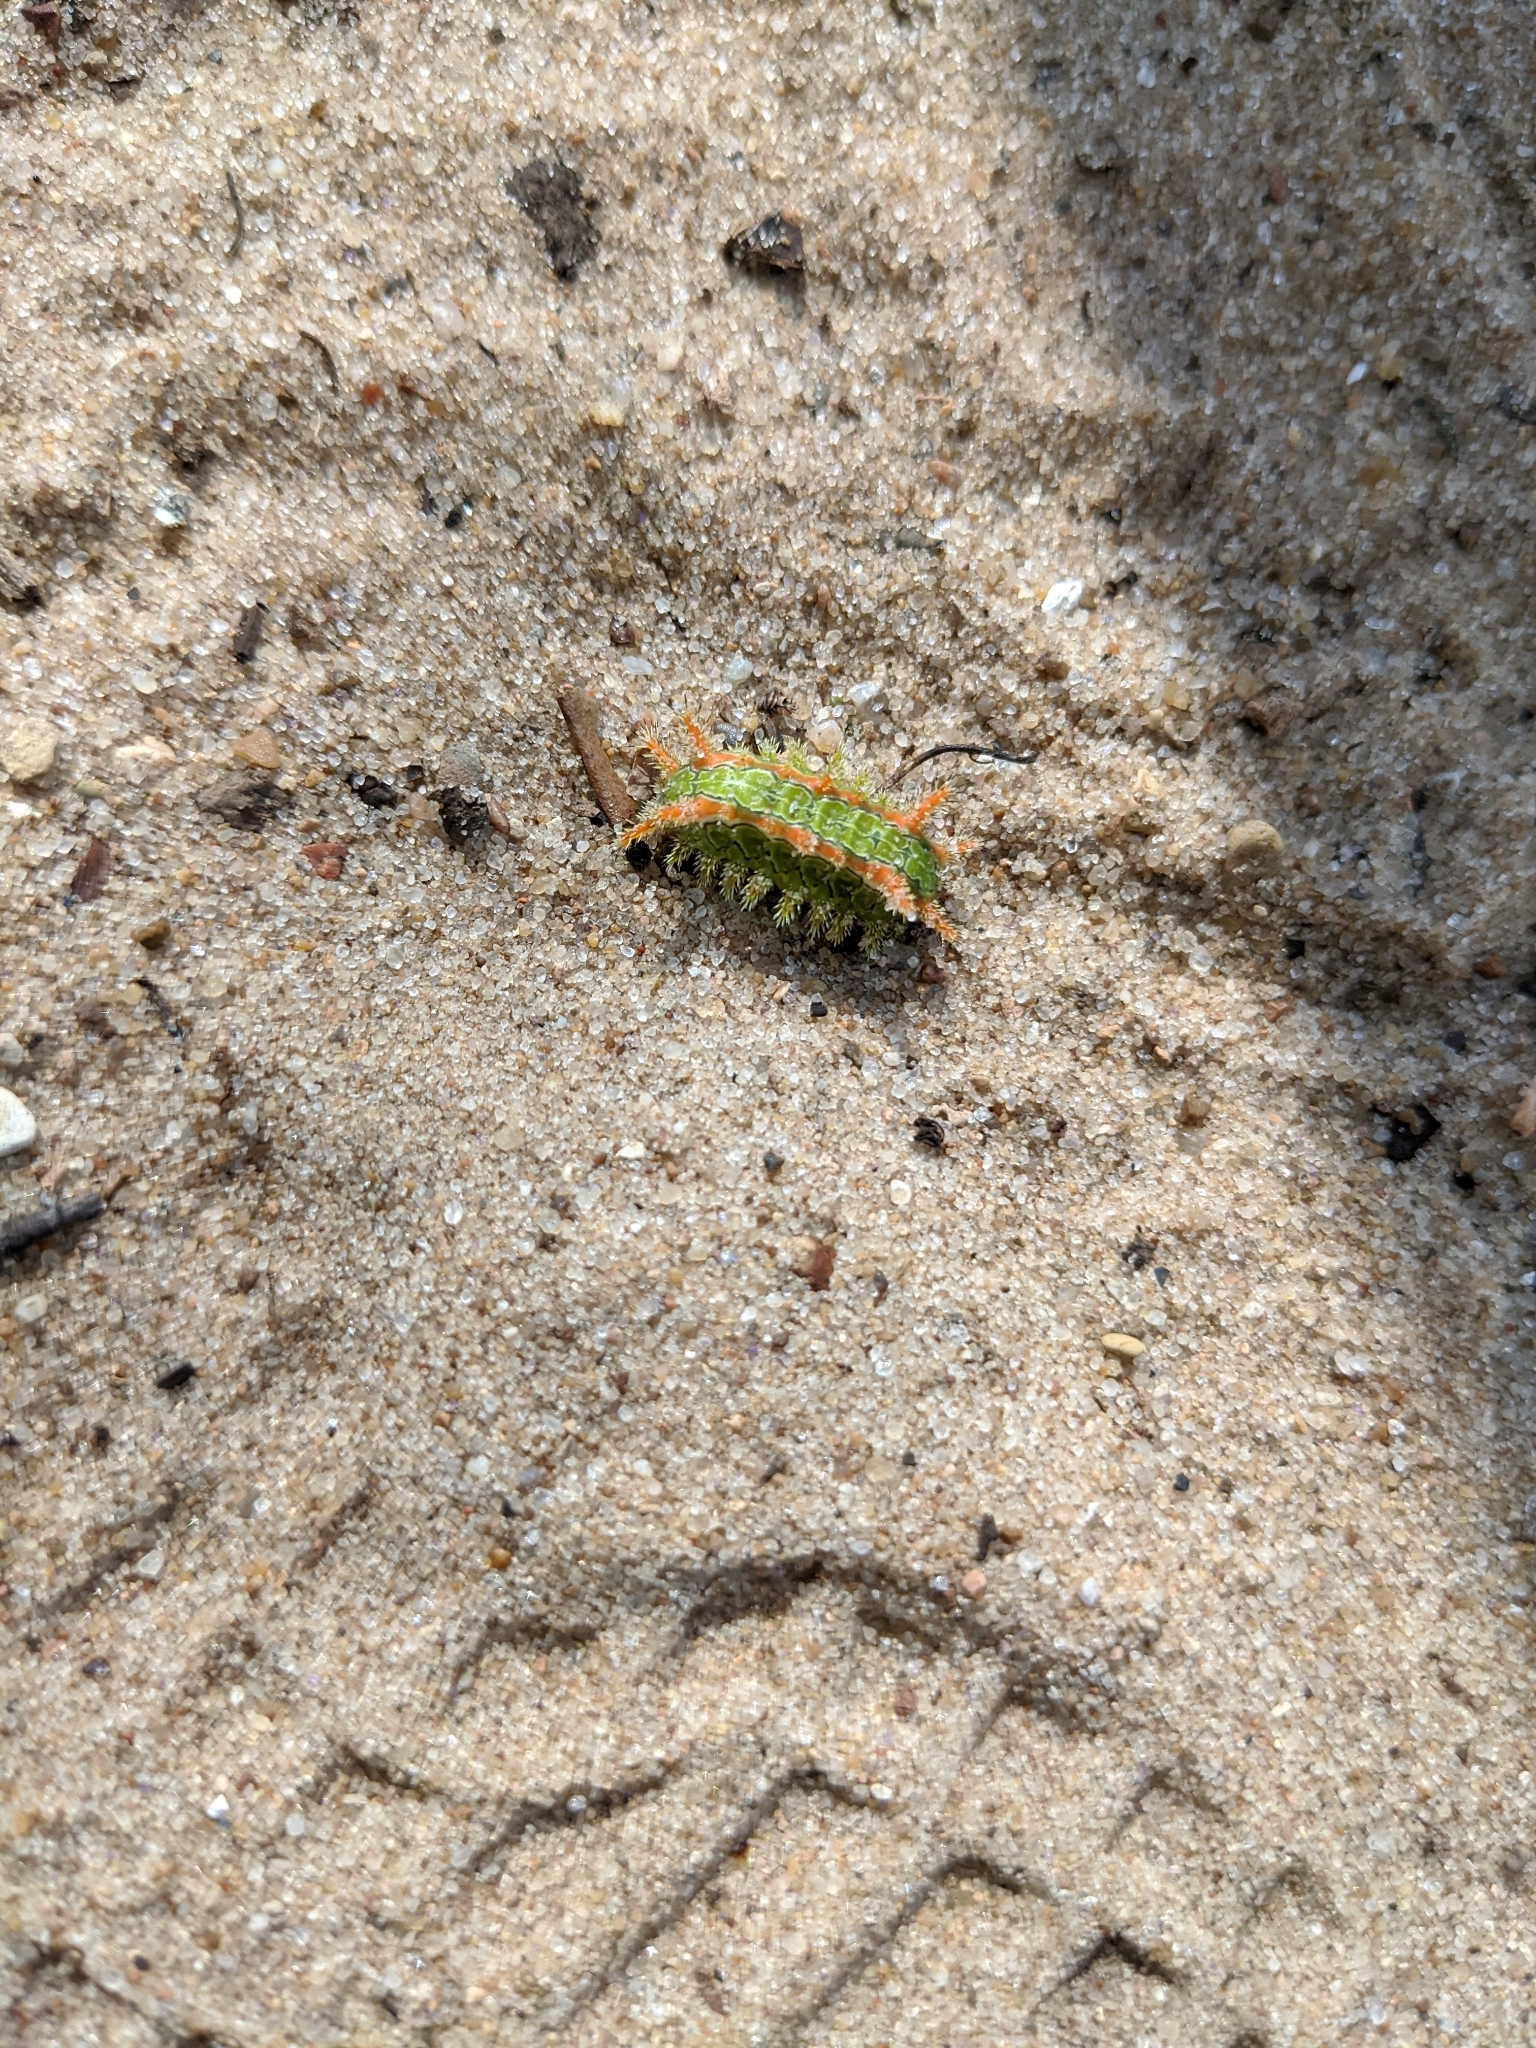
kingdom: Animalia
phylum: Arthropoda
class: Insecta
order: Lepidoptera
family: Limacodidae
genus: Euclea
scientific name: Euclea incisa
